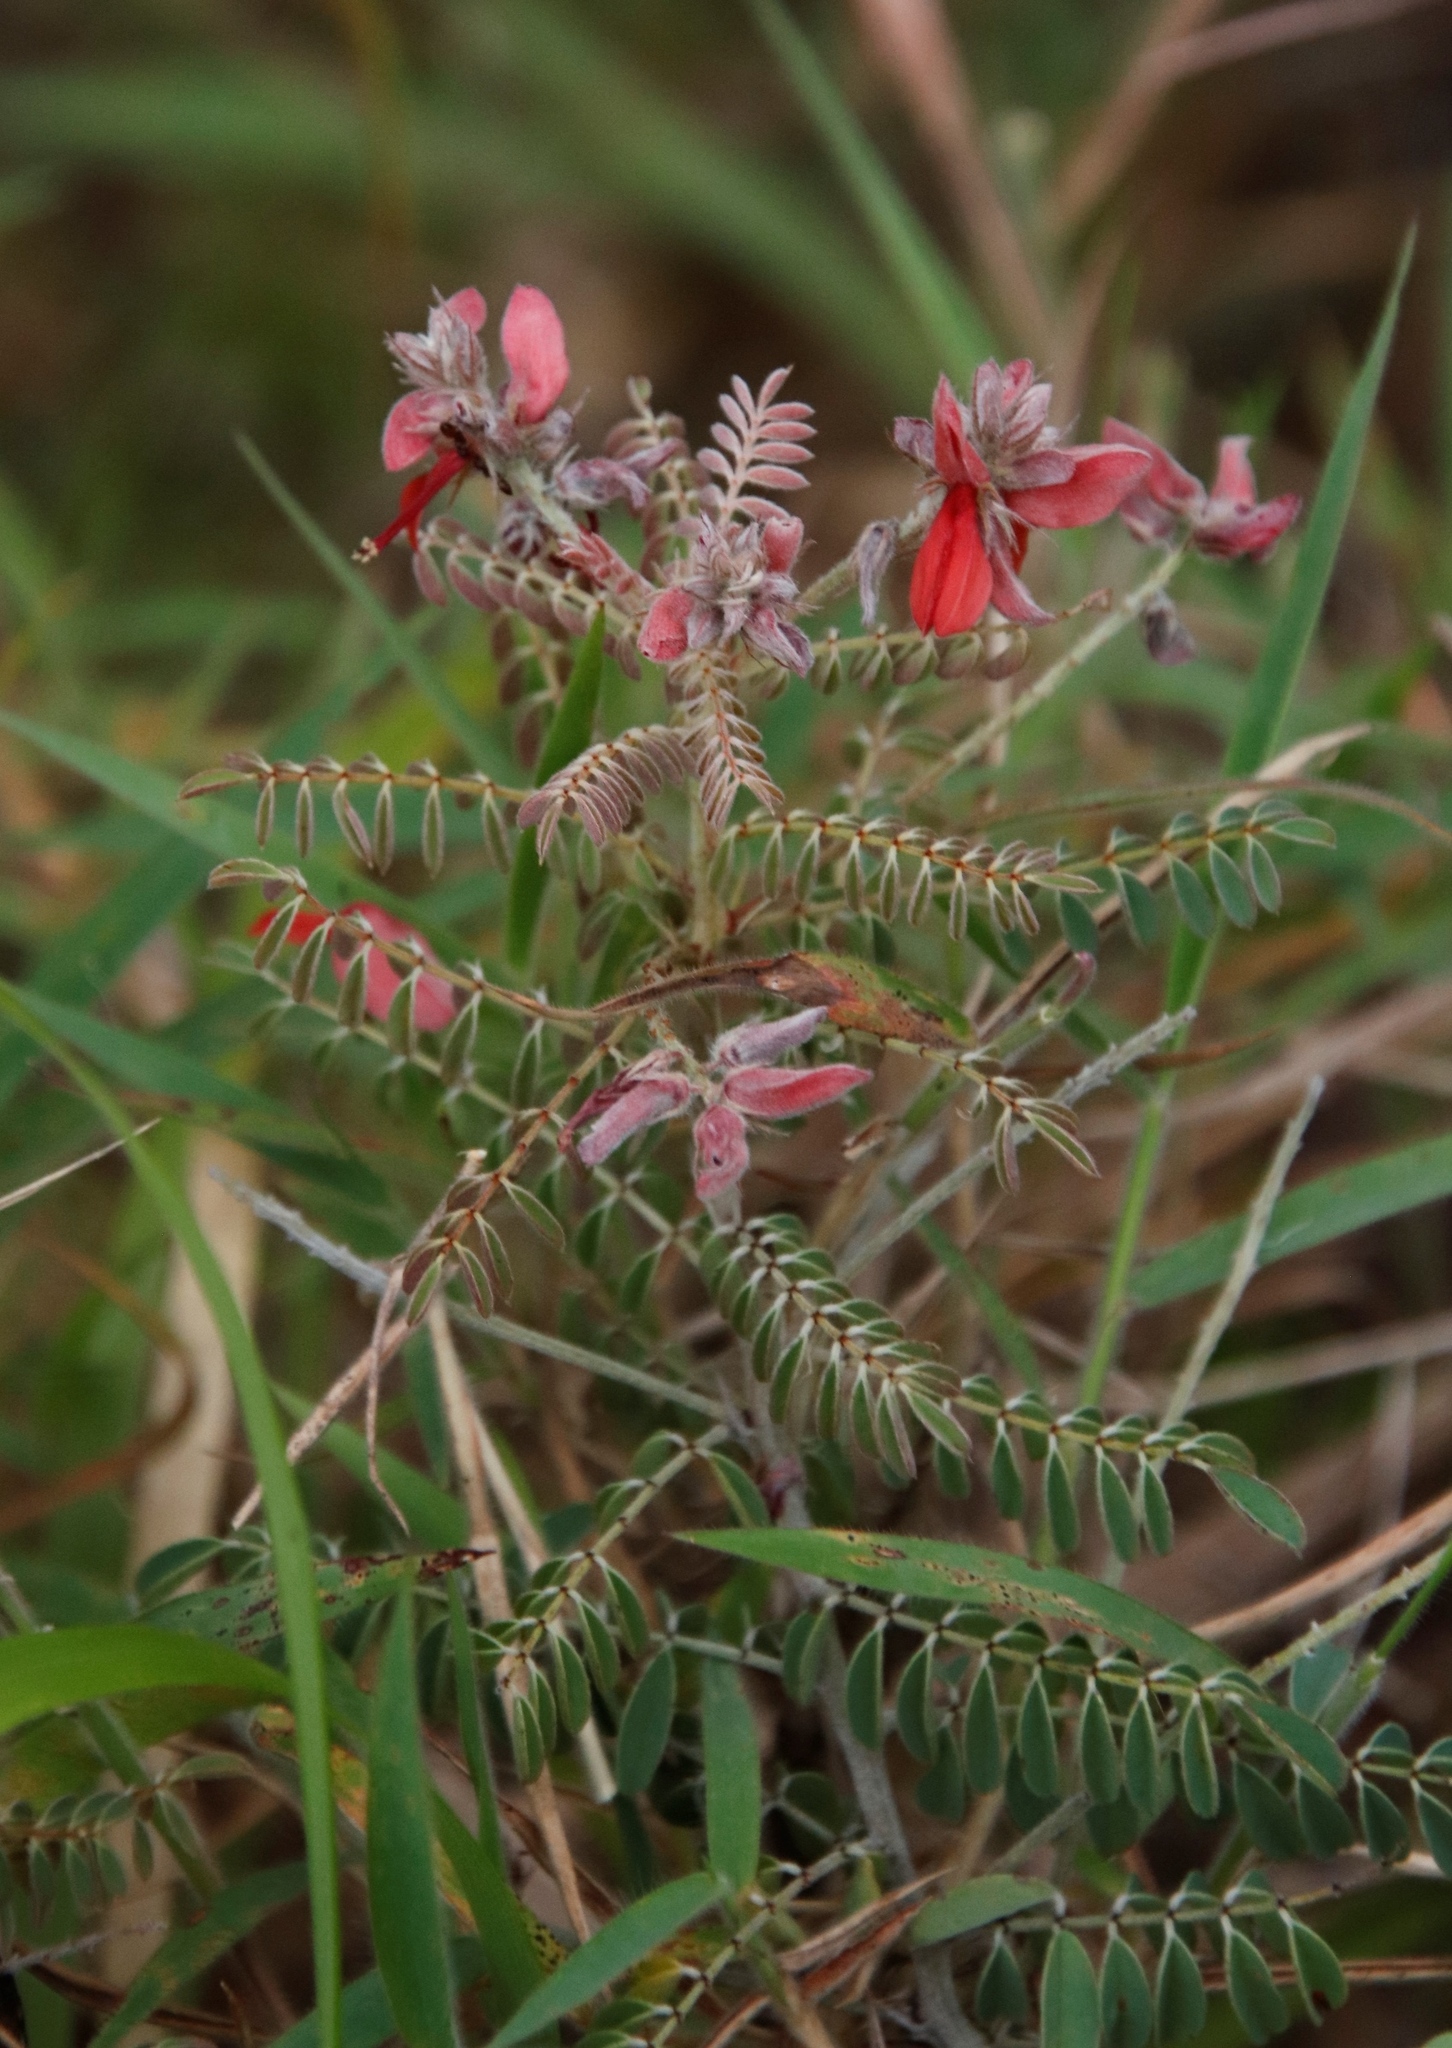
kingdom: Plantae
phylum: Tracheophyta
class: Magnoliopsida
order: Fabales
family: Fabaceae
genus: Indigofera
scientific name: Indigofera cecili
